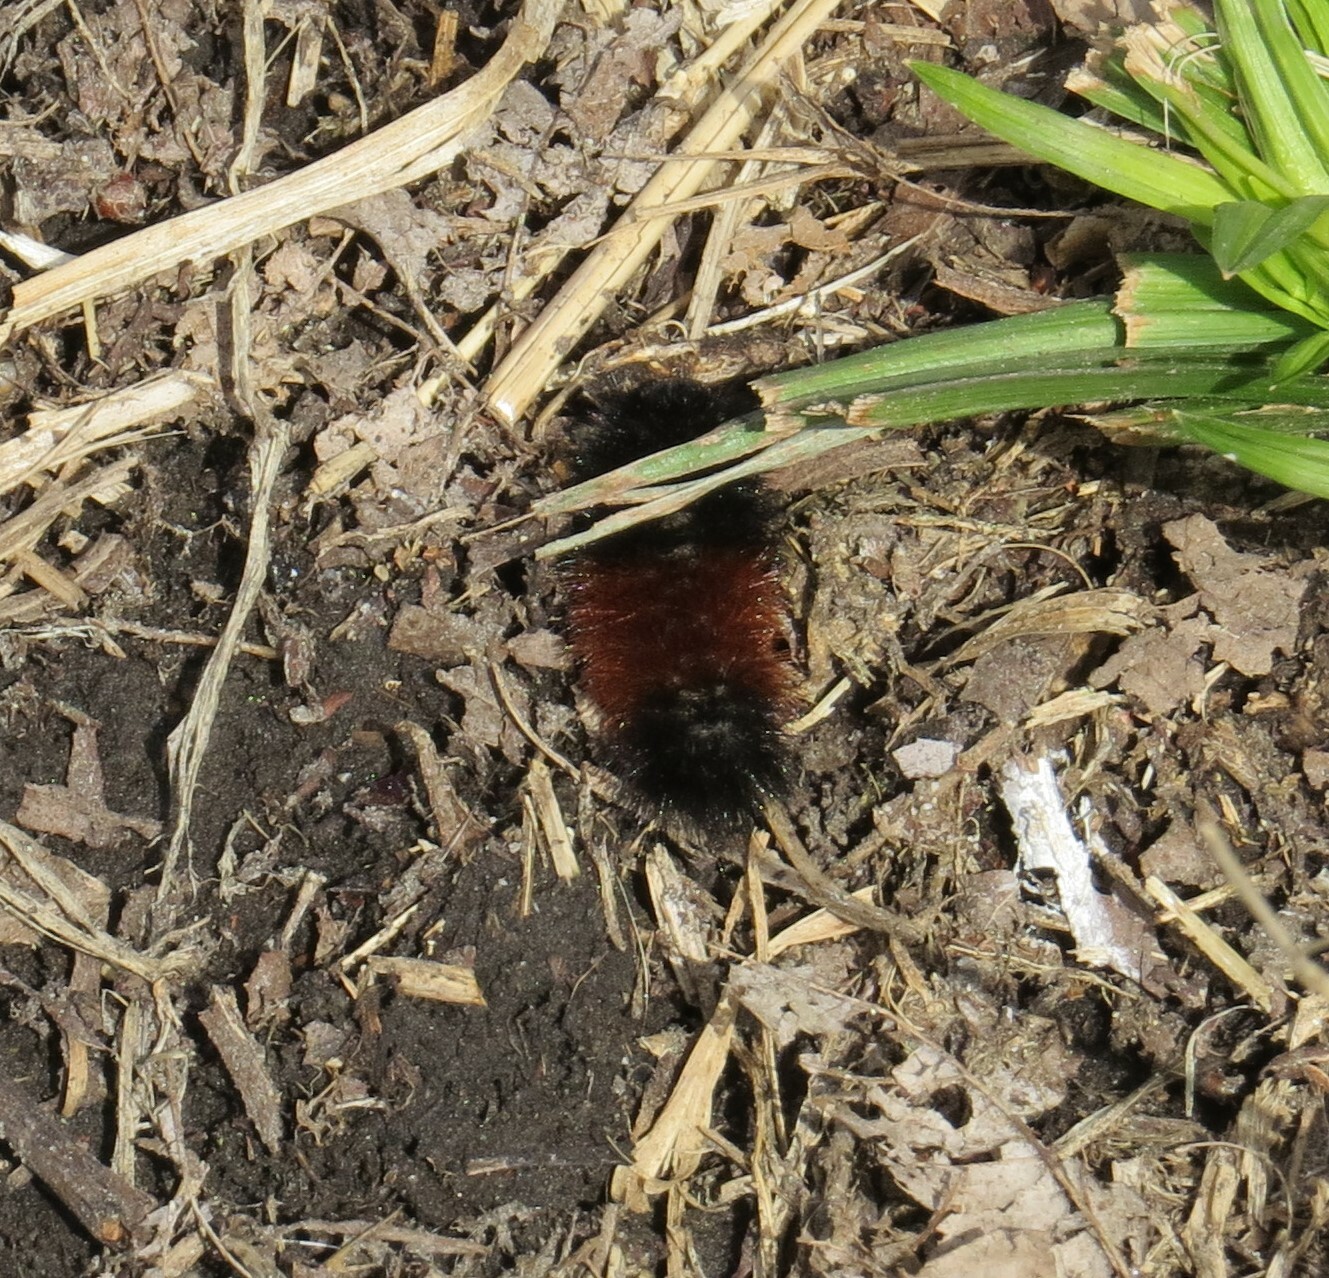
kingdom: Animalia
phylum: Arthropoda
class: Insecta
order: Lepidoptera
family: Erebidae
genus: Pyrrharctia
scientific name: Pyrrharctia isabella
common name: Isabella tiger moth
